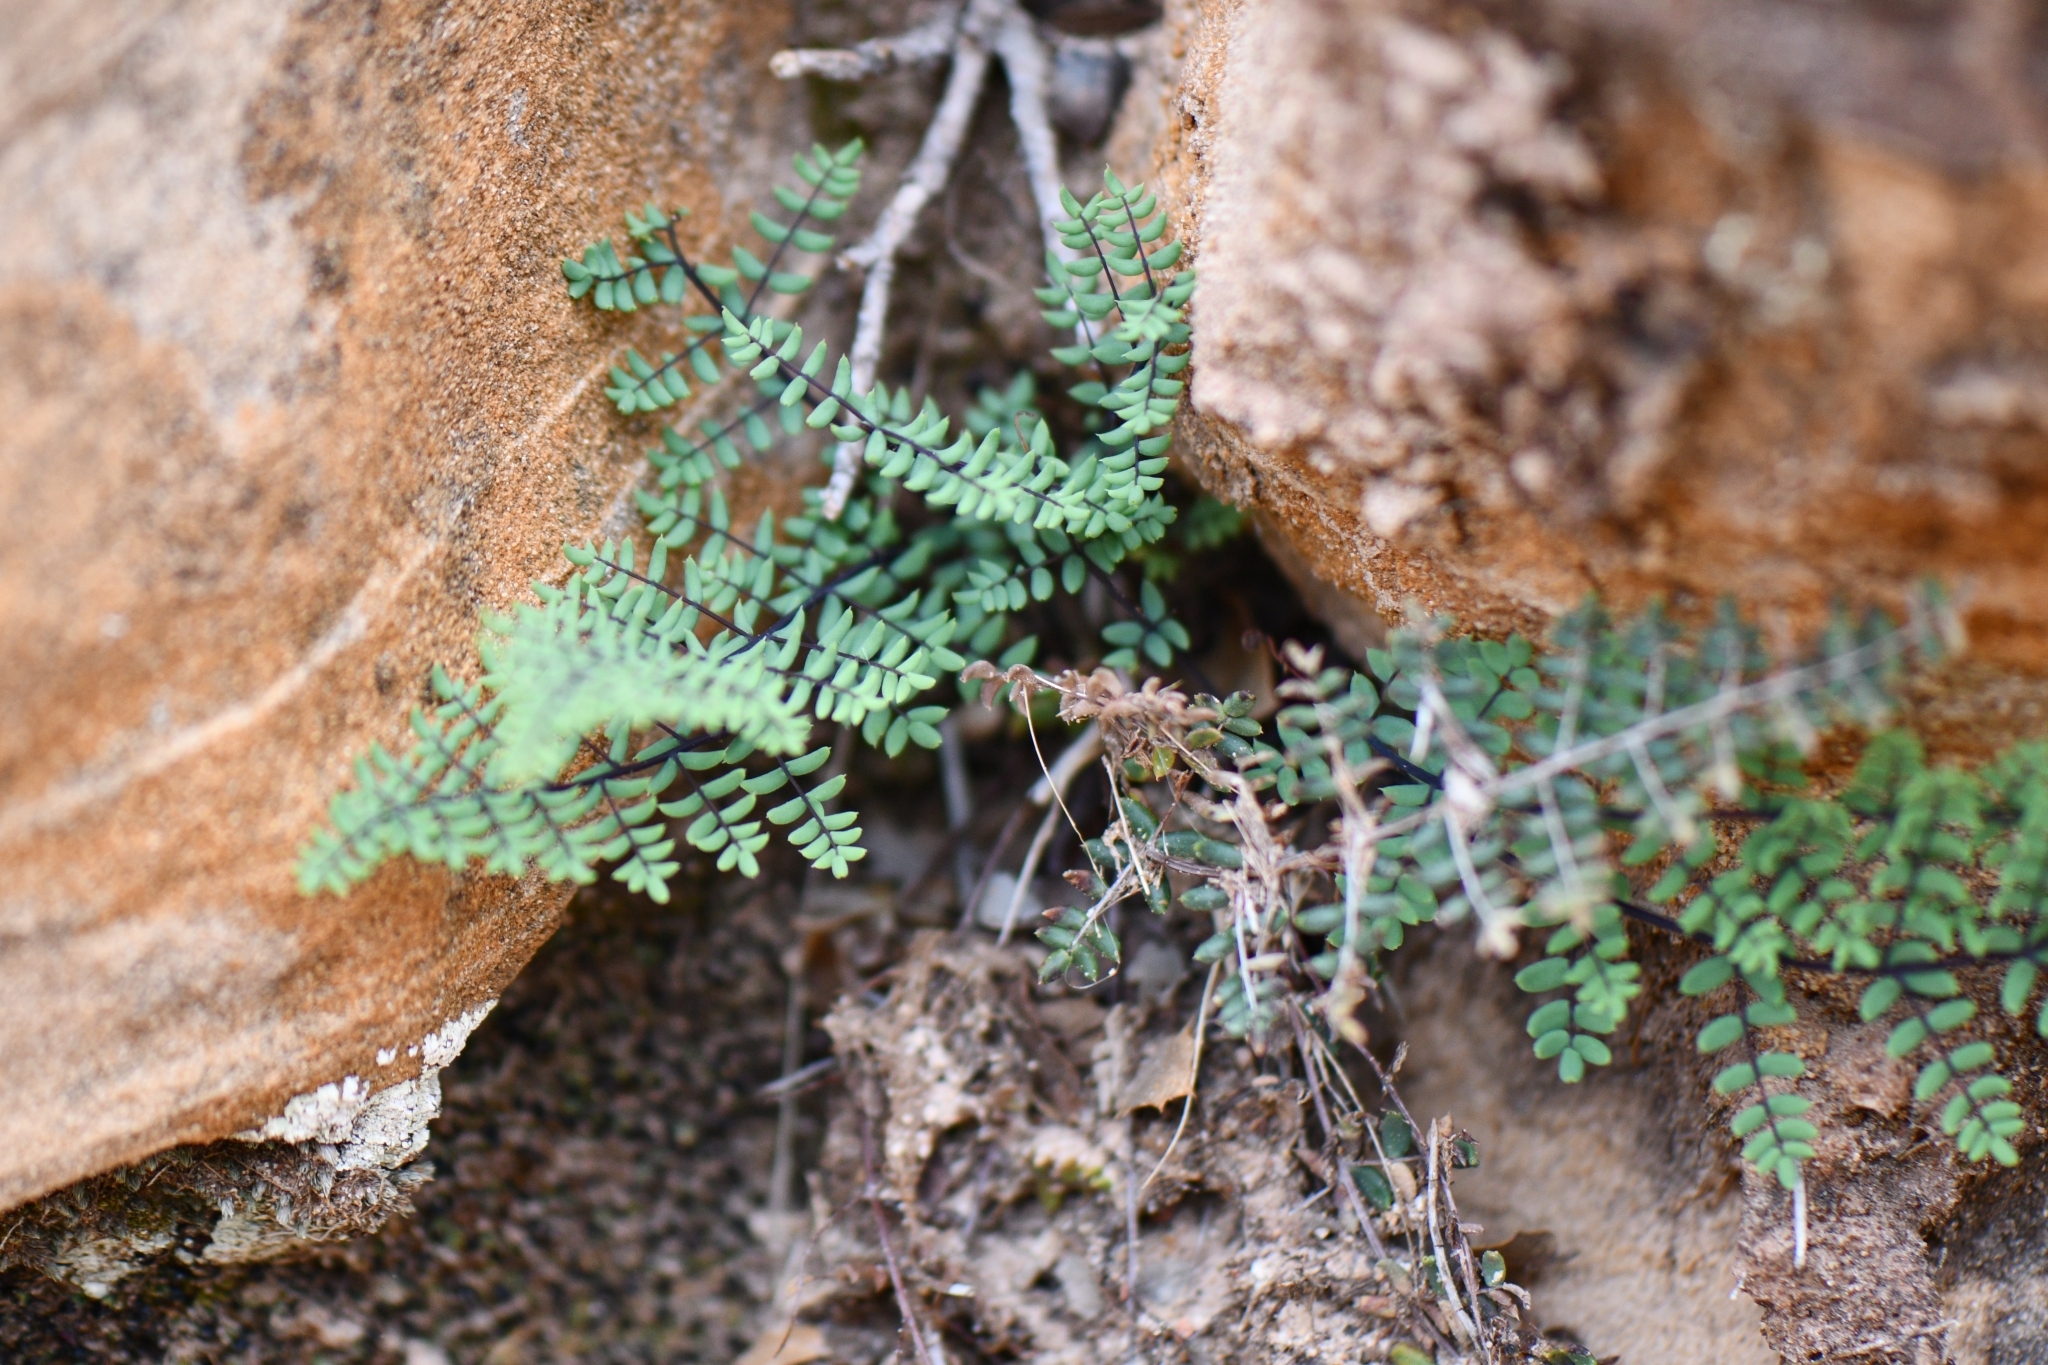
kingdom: Plantae
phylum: Tracheophyta
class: Polypodiopsida
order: Polypodiales
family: Pteridaceae
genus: Pellaea
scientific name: Pellaea truncata
